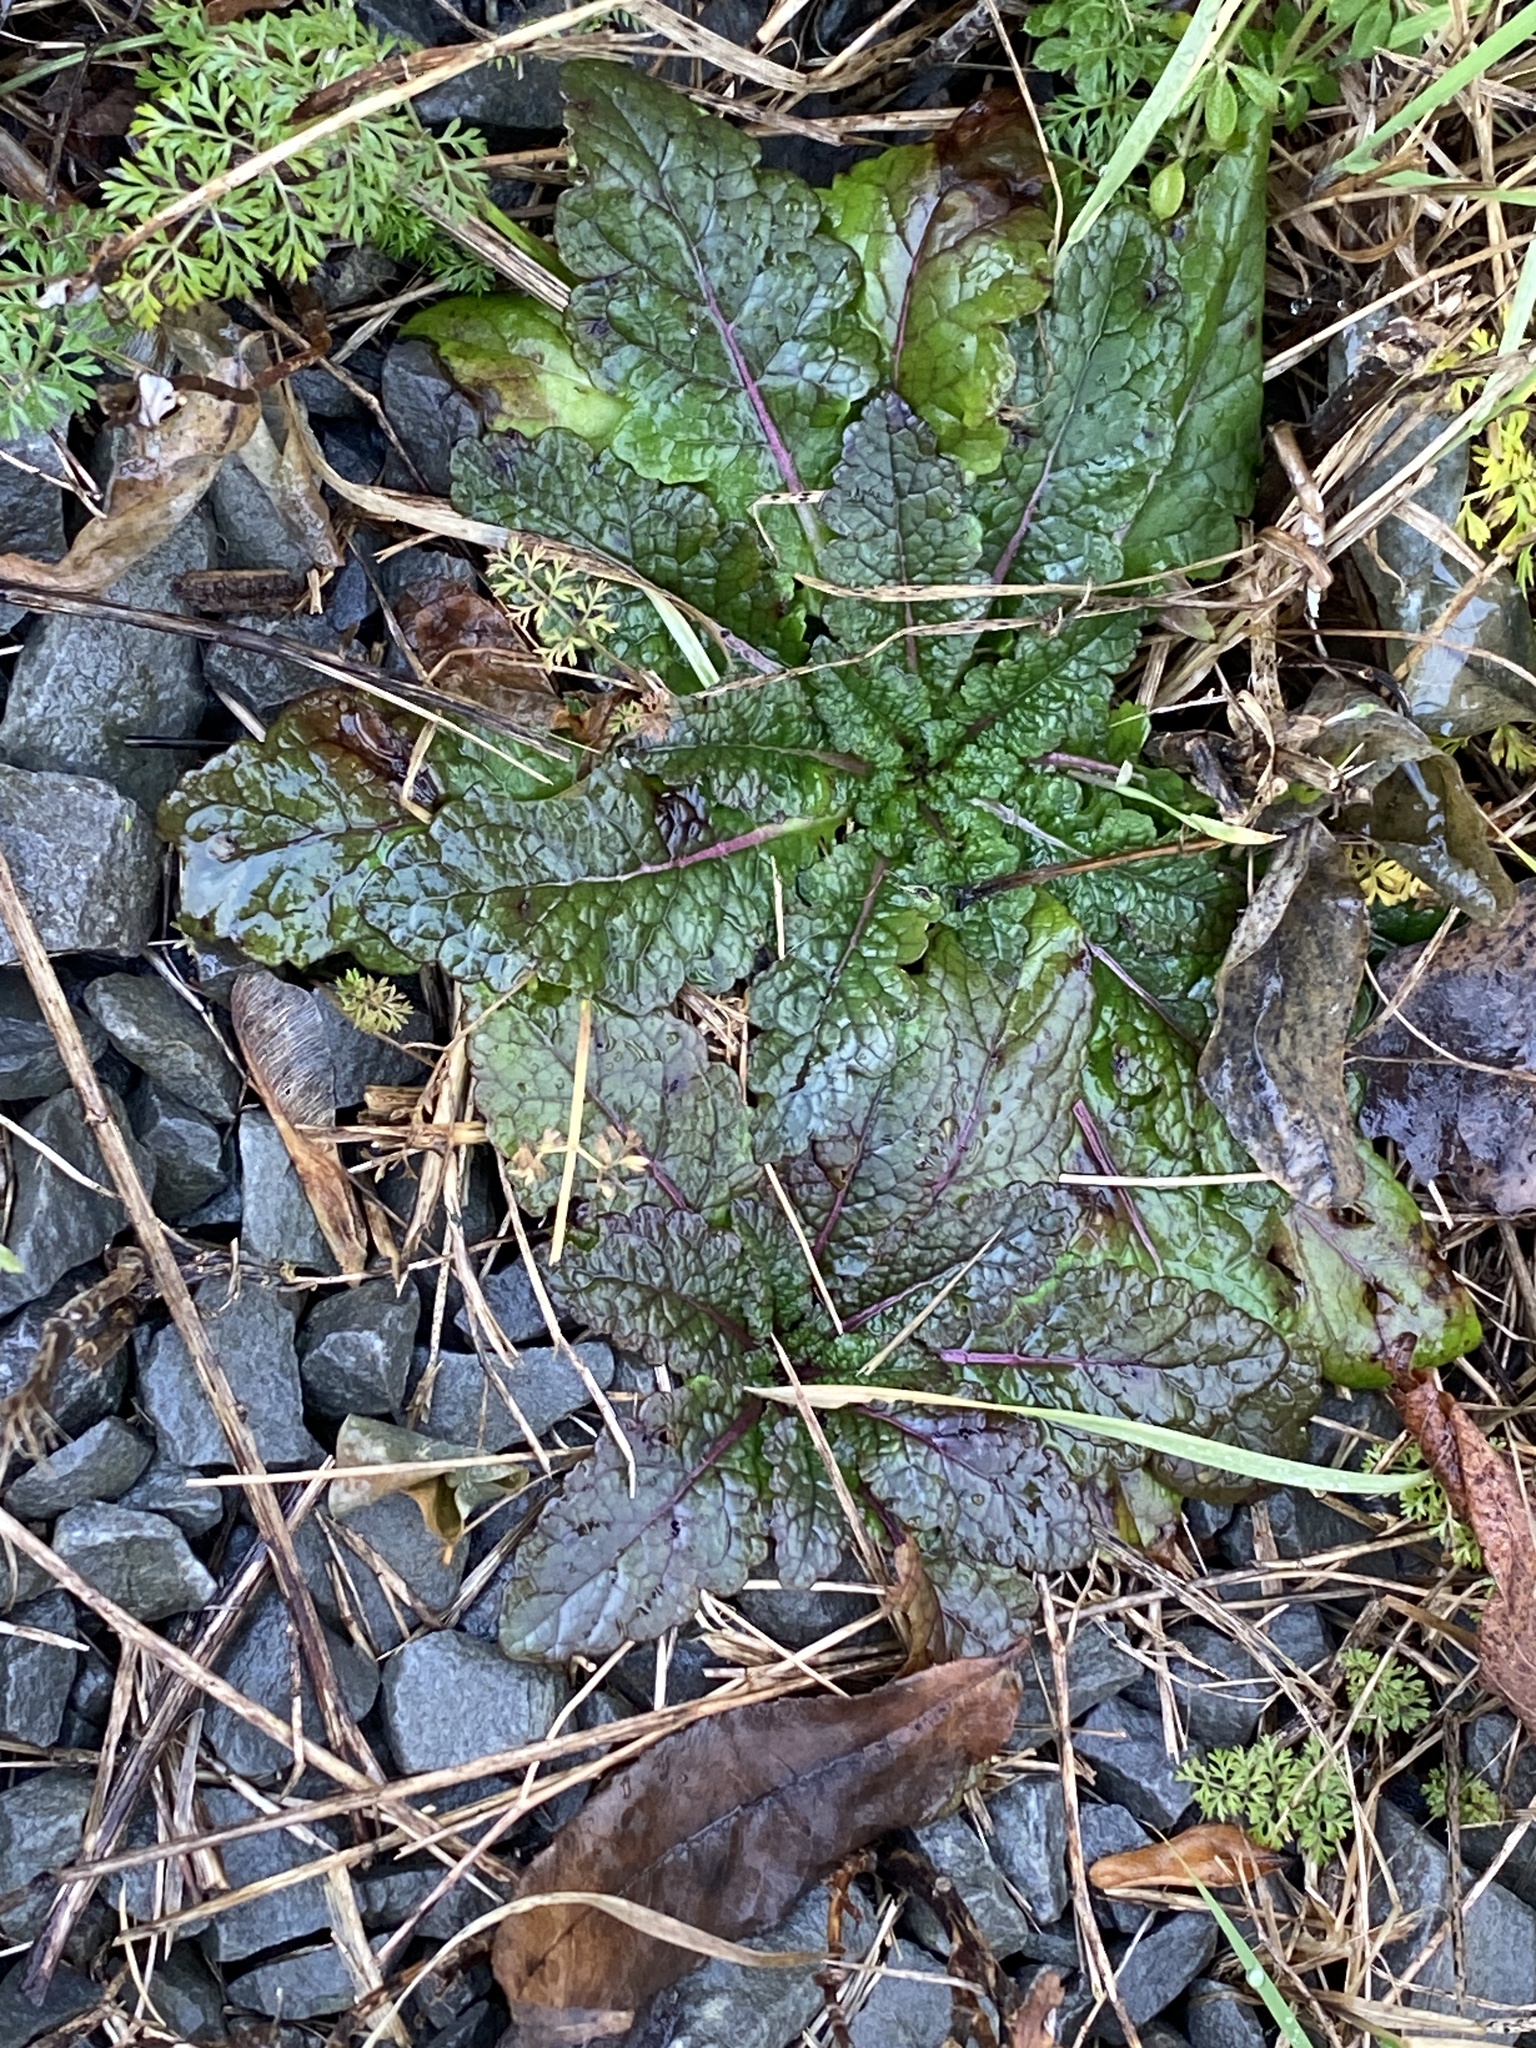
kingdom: Plantae
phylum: Tracheophyta
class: Magnoliopsida
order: Lamiales
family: Scrophulariaceae
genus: Verbascum
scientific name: Verbascum blattaria
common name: Moth mullein
